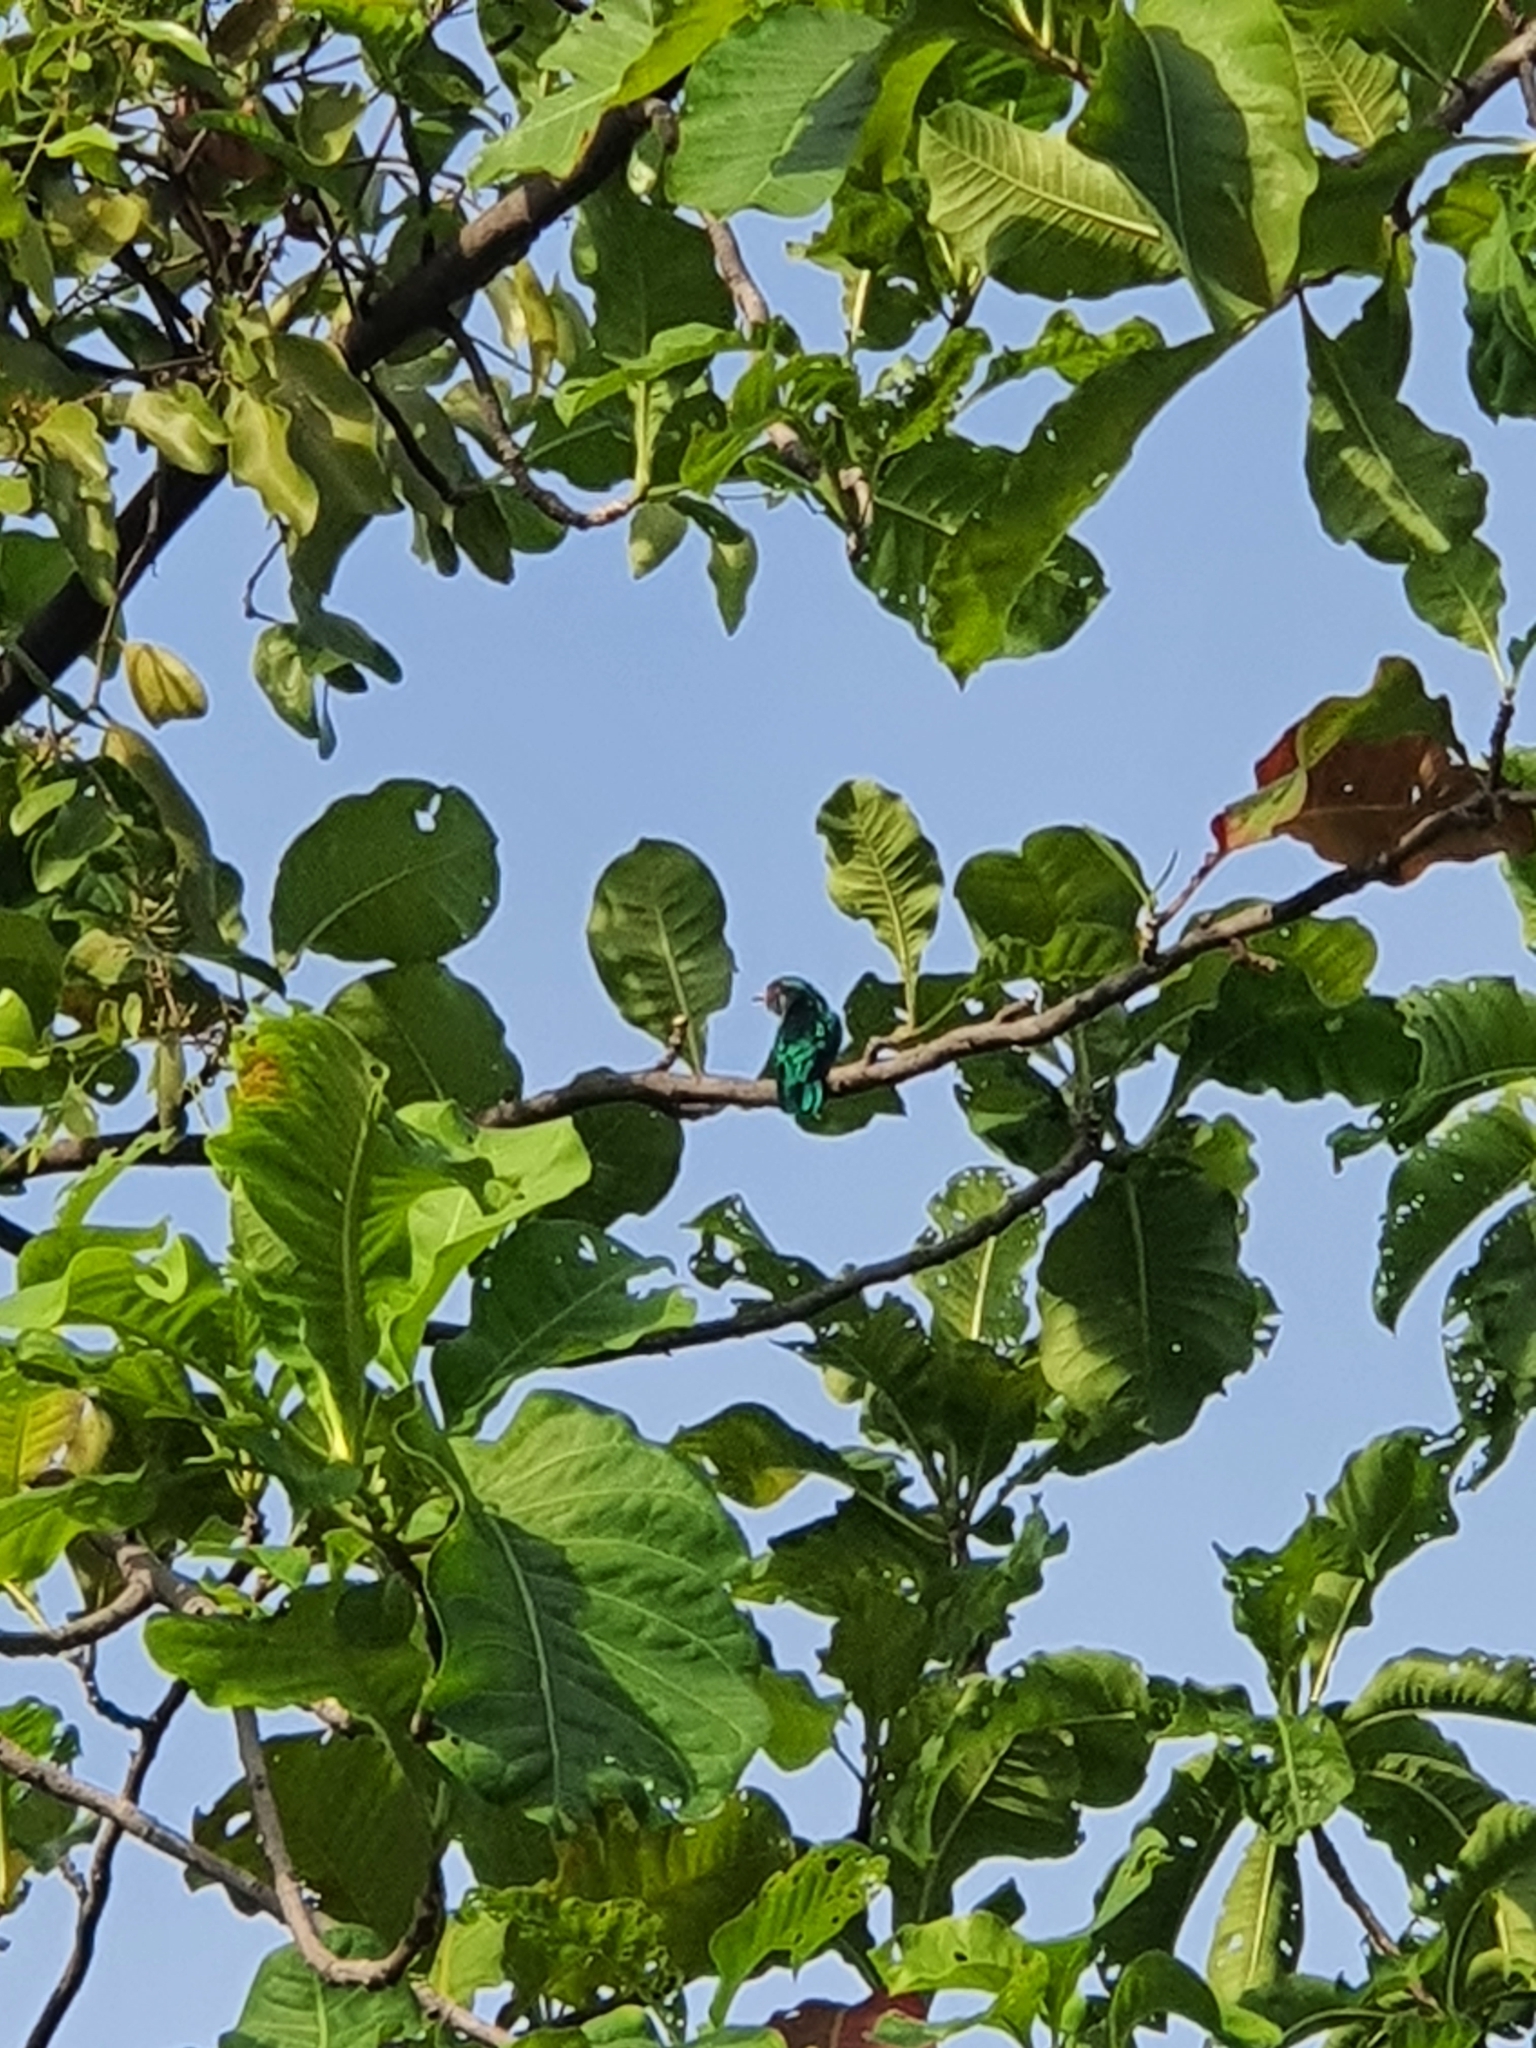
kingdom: Animalia
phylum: Chordata
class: Aves
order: Cuculiformes
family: Cuculidae
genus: Chrysococcyx
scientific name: Chrysococcyx maculatus
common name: Asian emerald cuckoo
